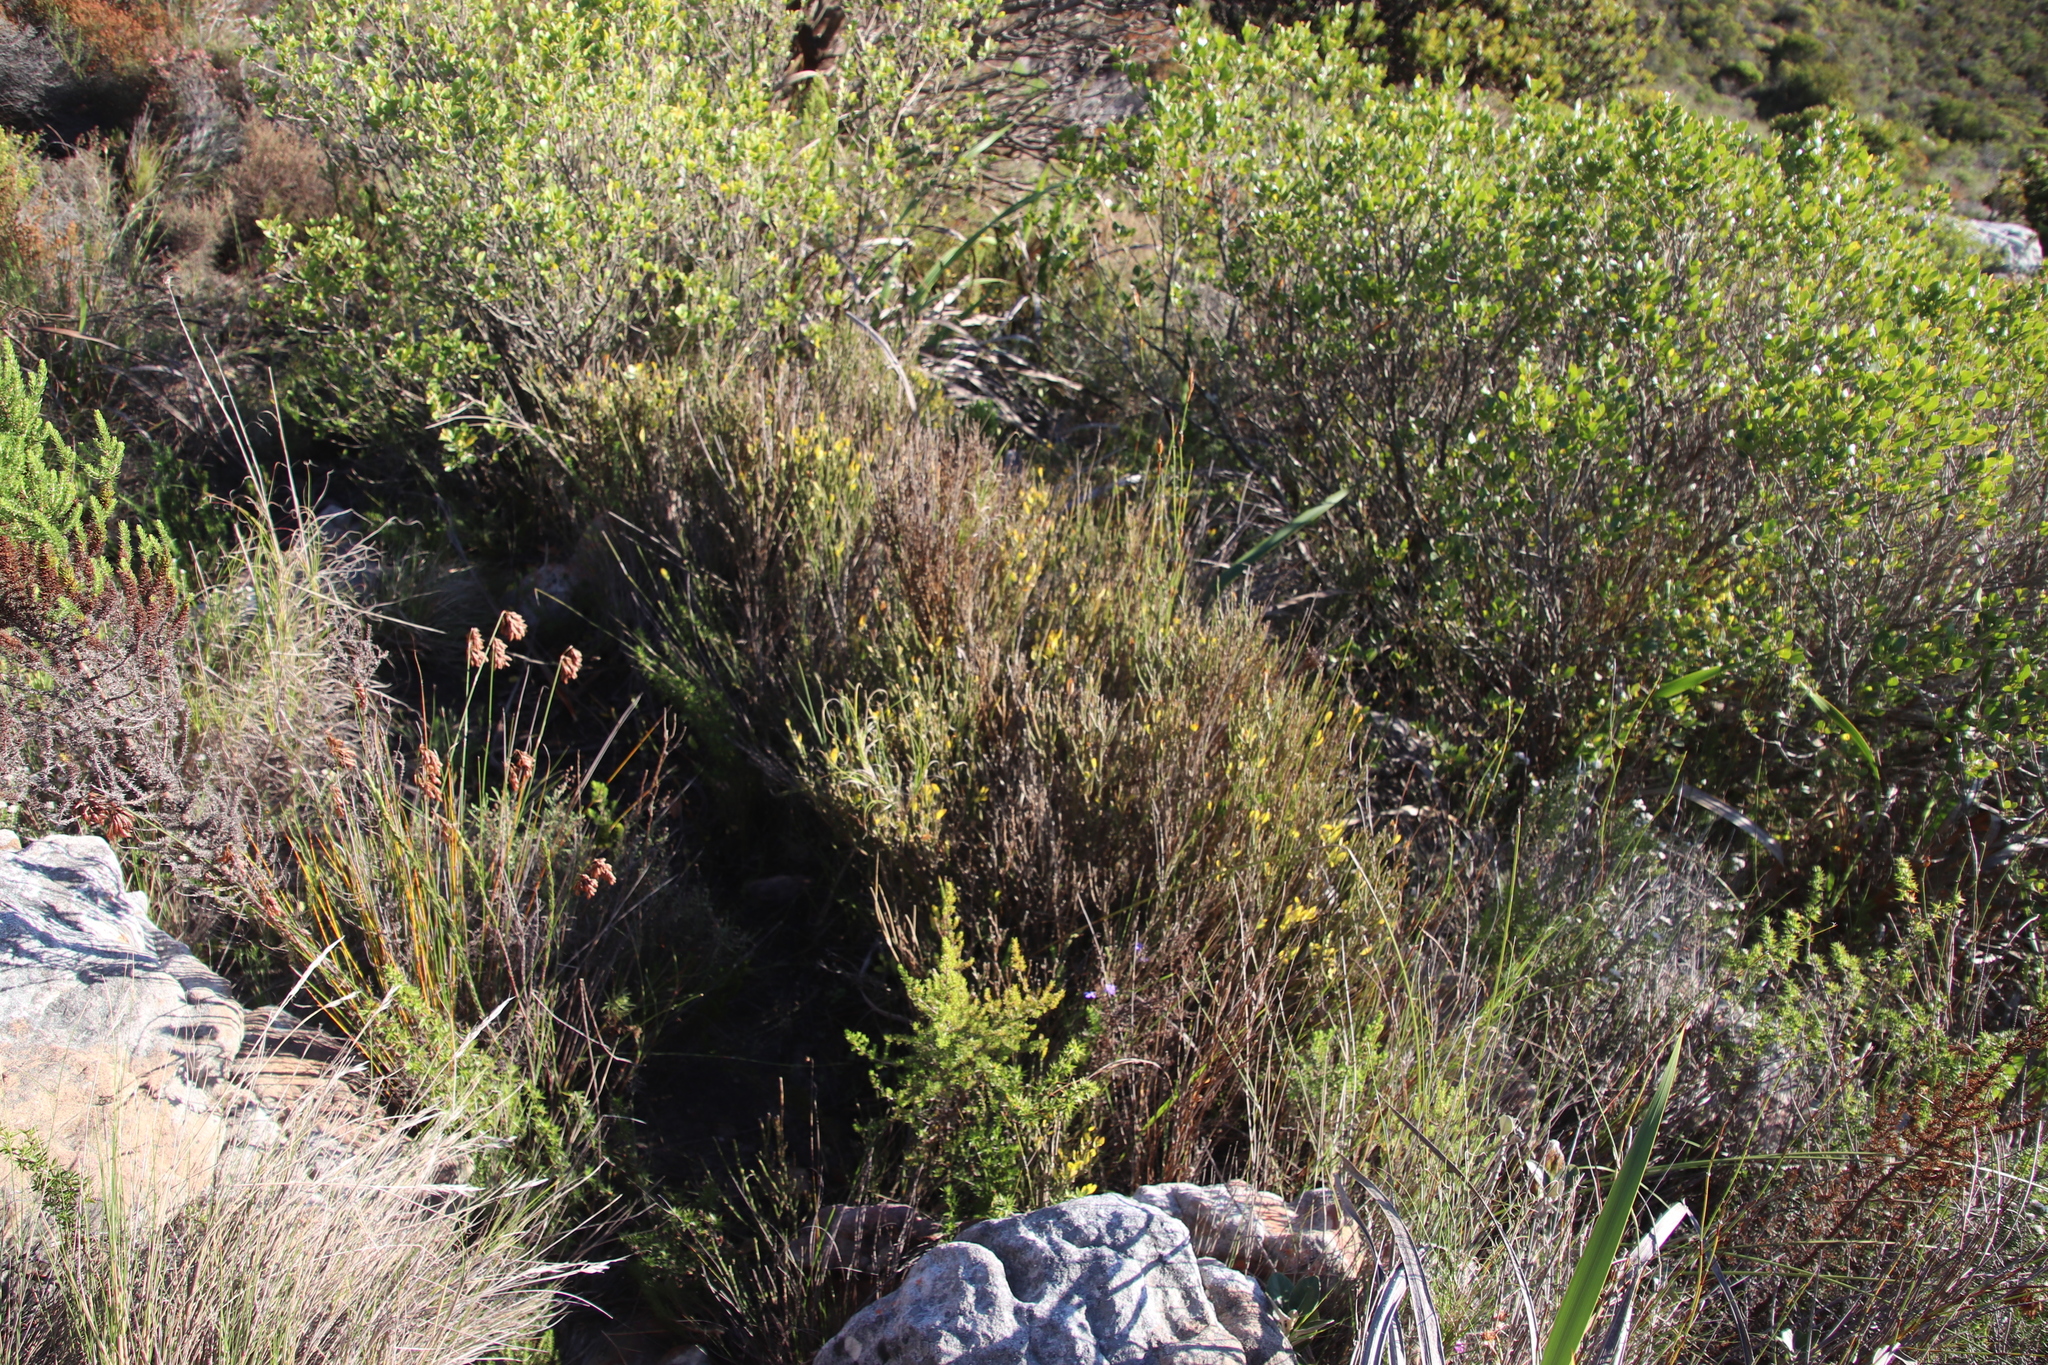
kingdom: Plantae
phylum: Tracheophyta
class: Magnoliopsida
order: Solanales
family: Montiniaceae
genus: Montinia
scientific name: Montinia caryophyllacea
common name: Wild clove-bush
